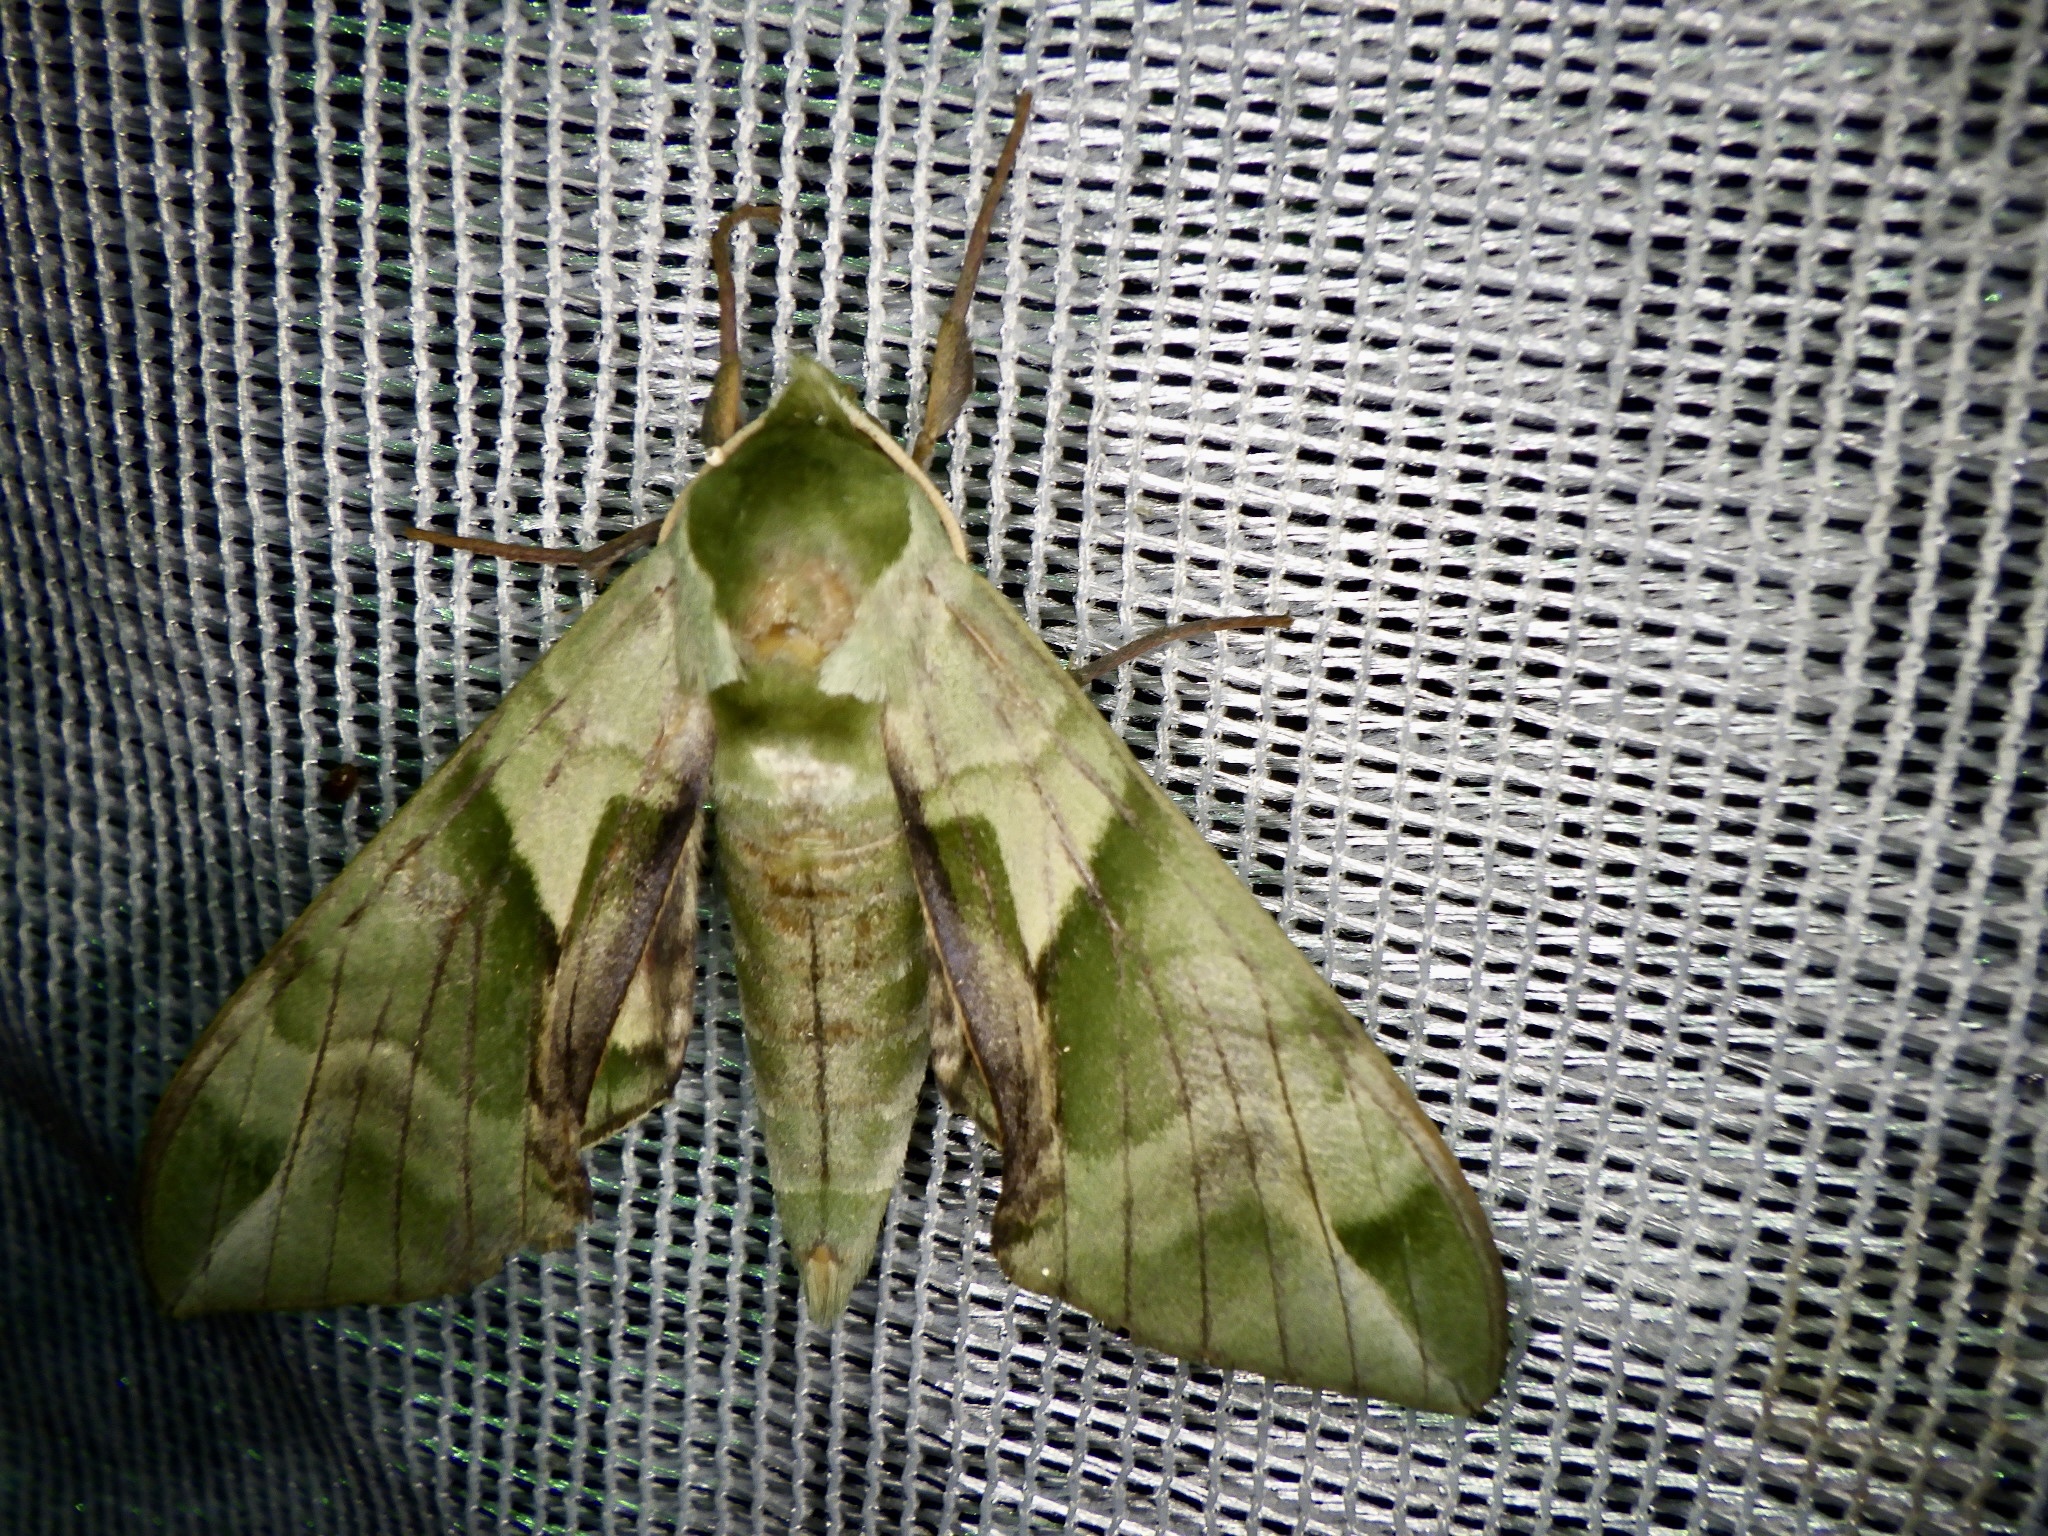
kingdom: Animalia
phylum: Arthropoda
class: Insecta
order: Lepidoptera
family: Sphingidae
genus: Callambulyx
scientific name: Callambulyx tatarinovii
